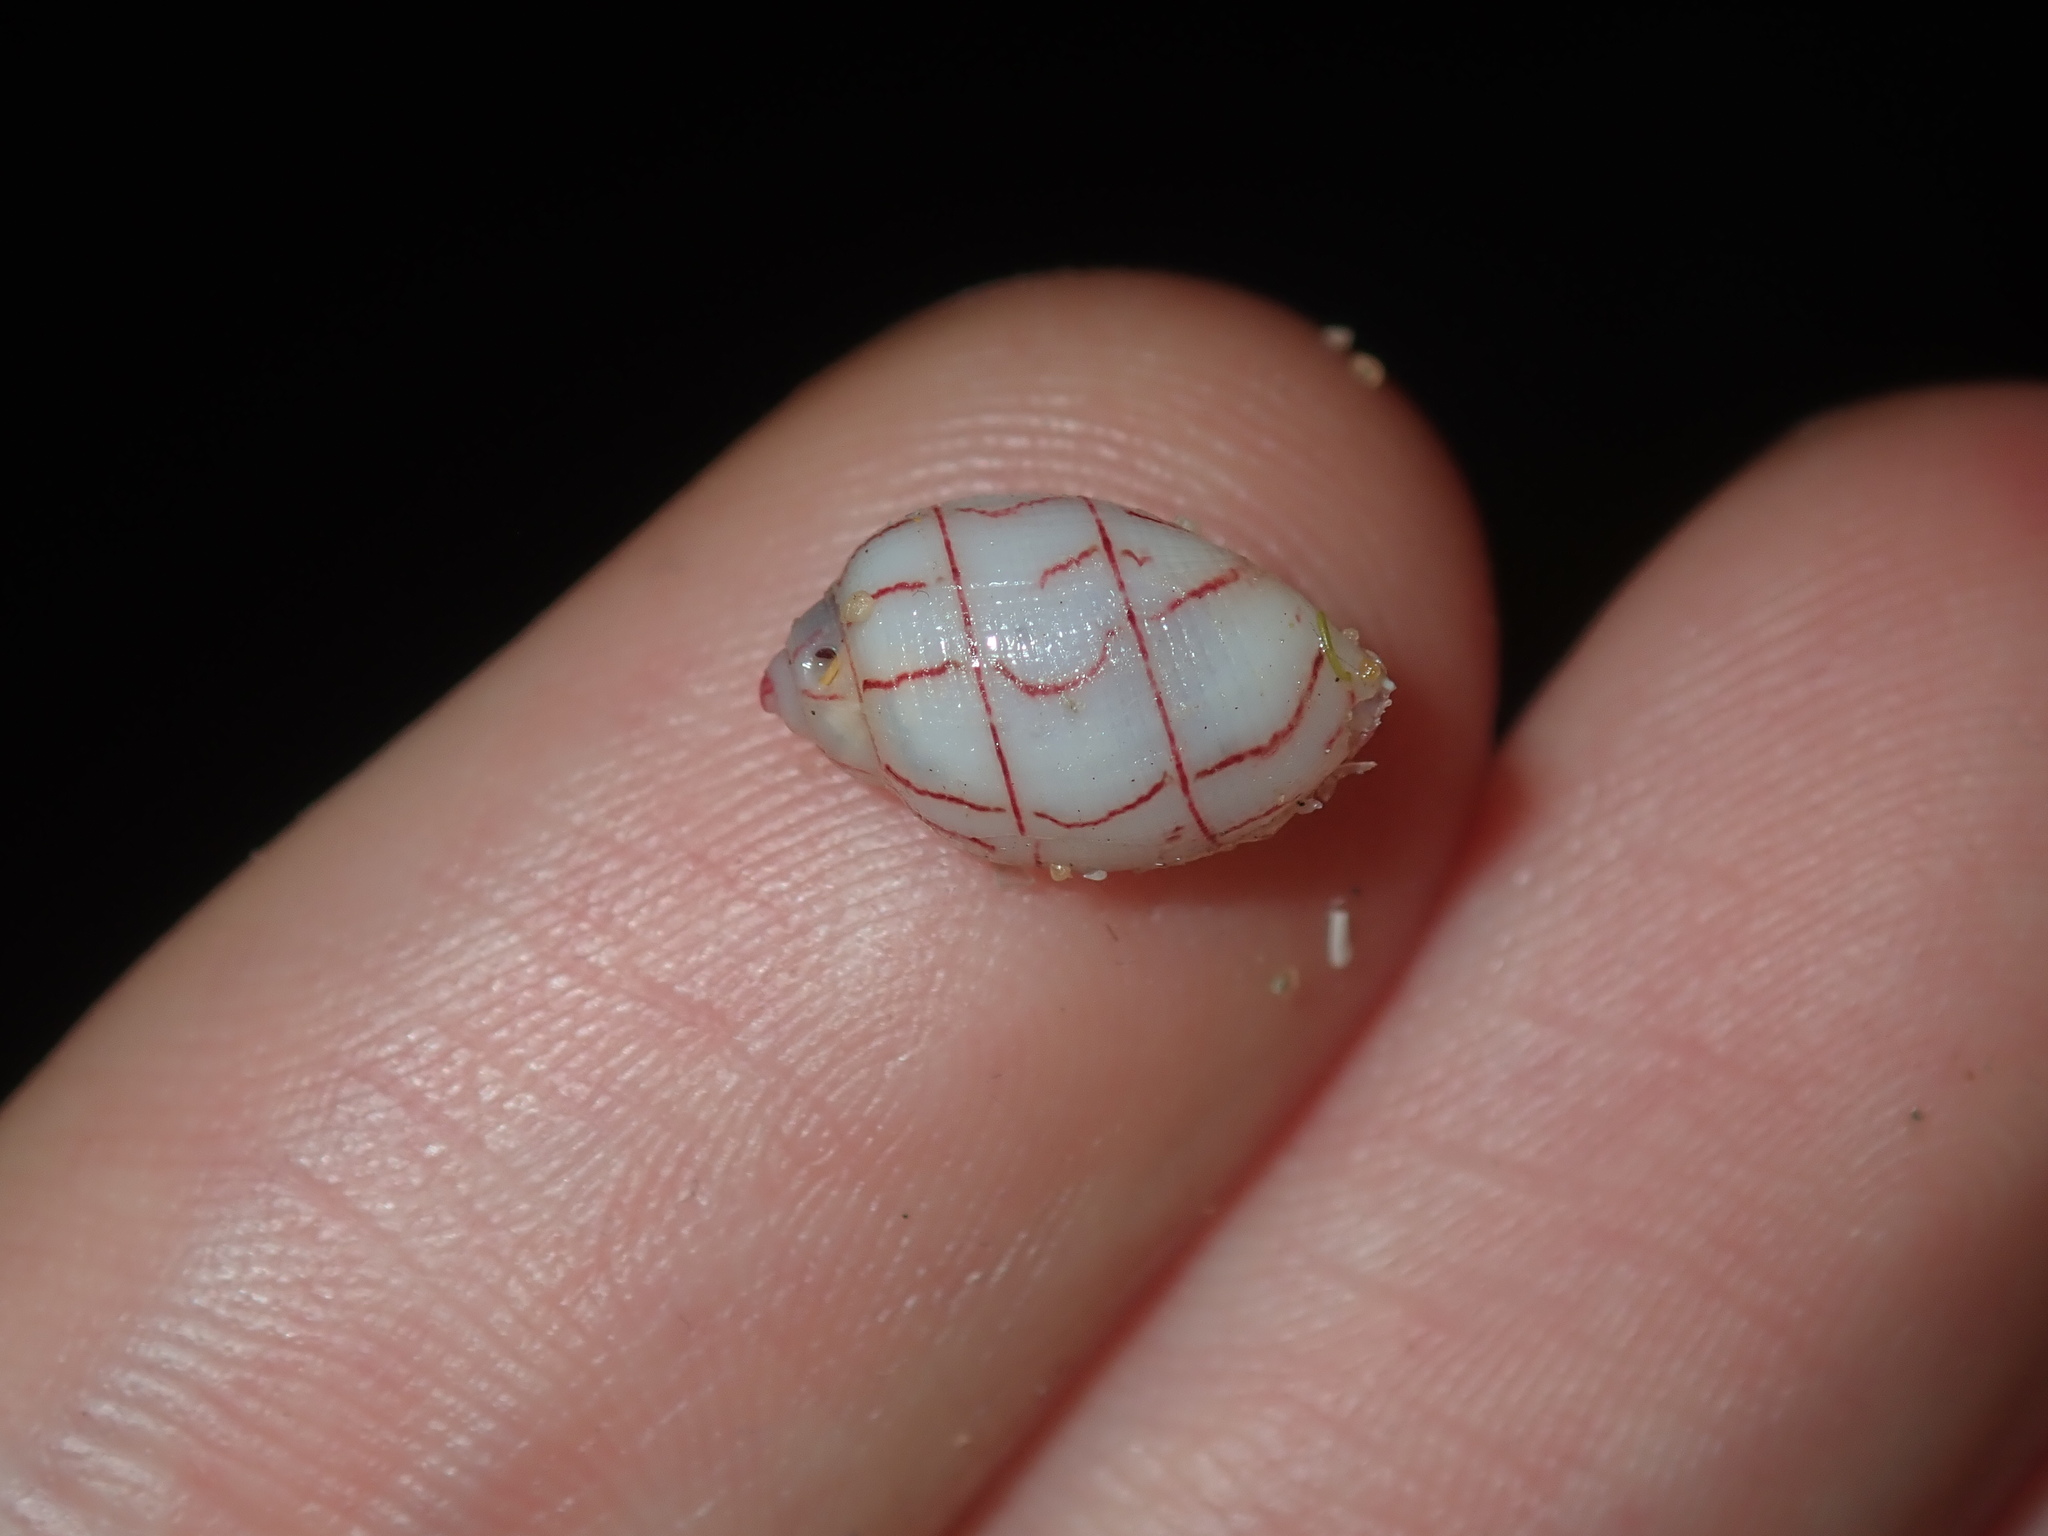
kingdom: Animalia
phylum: Mollusca
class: Gastropoda
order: Cephalaspidea
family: Aplustridae
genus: Bullina
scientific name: Bullina lineata
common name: Lined bubble snail
